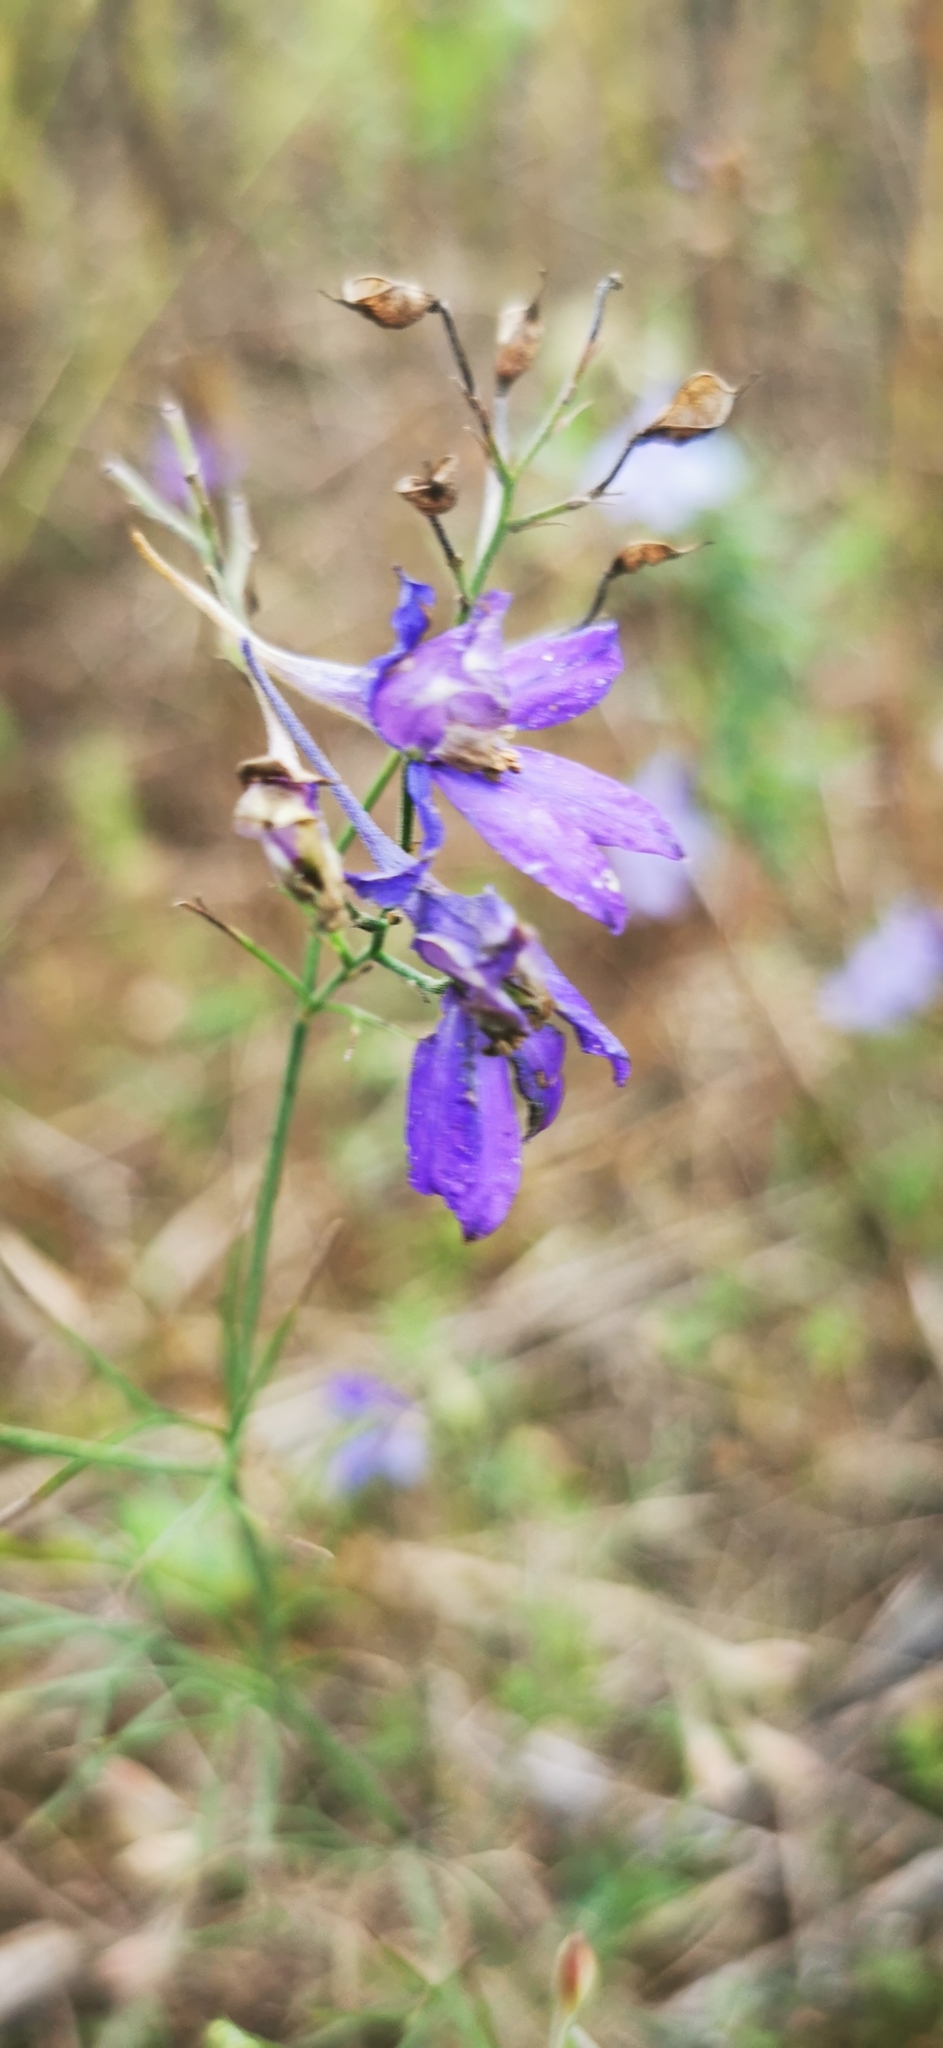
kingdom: Plantae
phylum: Tracheophyta
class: Magnoliopsida
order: Ranunculales
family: Ranunculaceae
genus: Delphinium
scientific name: Delphinium consolida
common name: Branching larkspur
